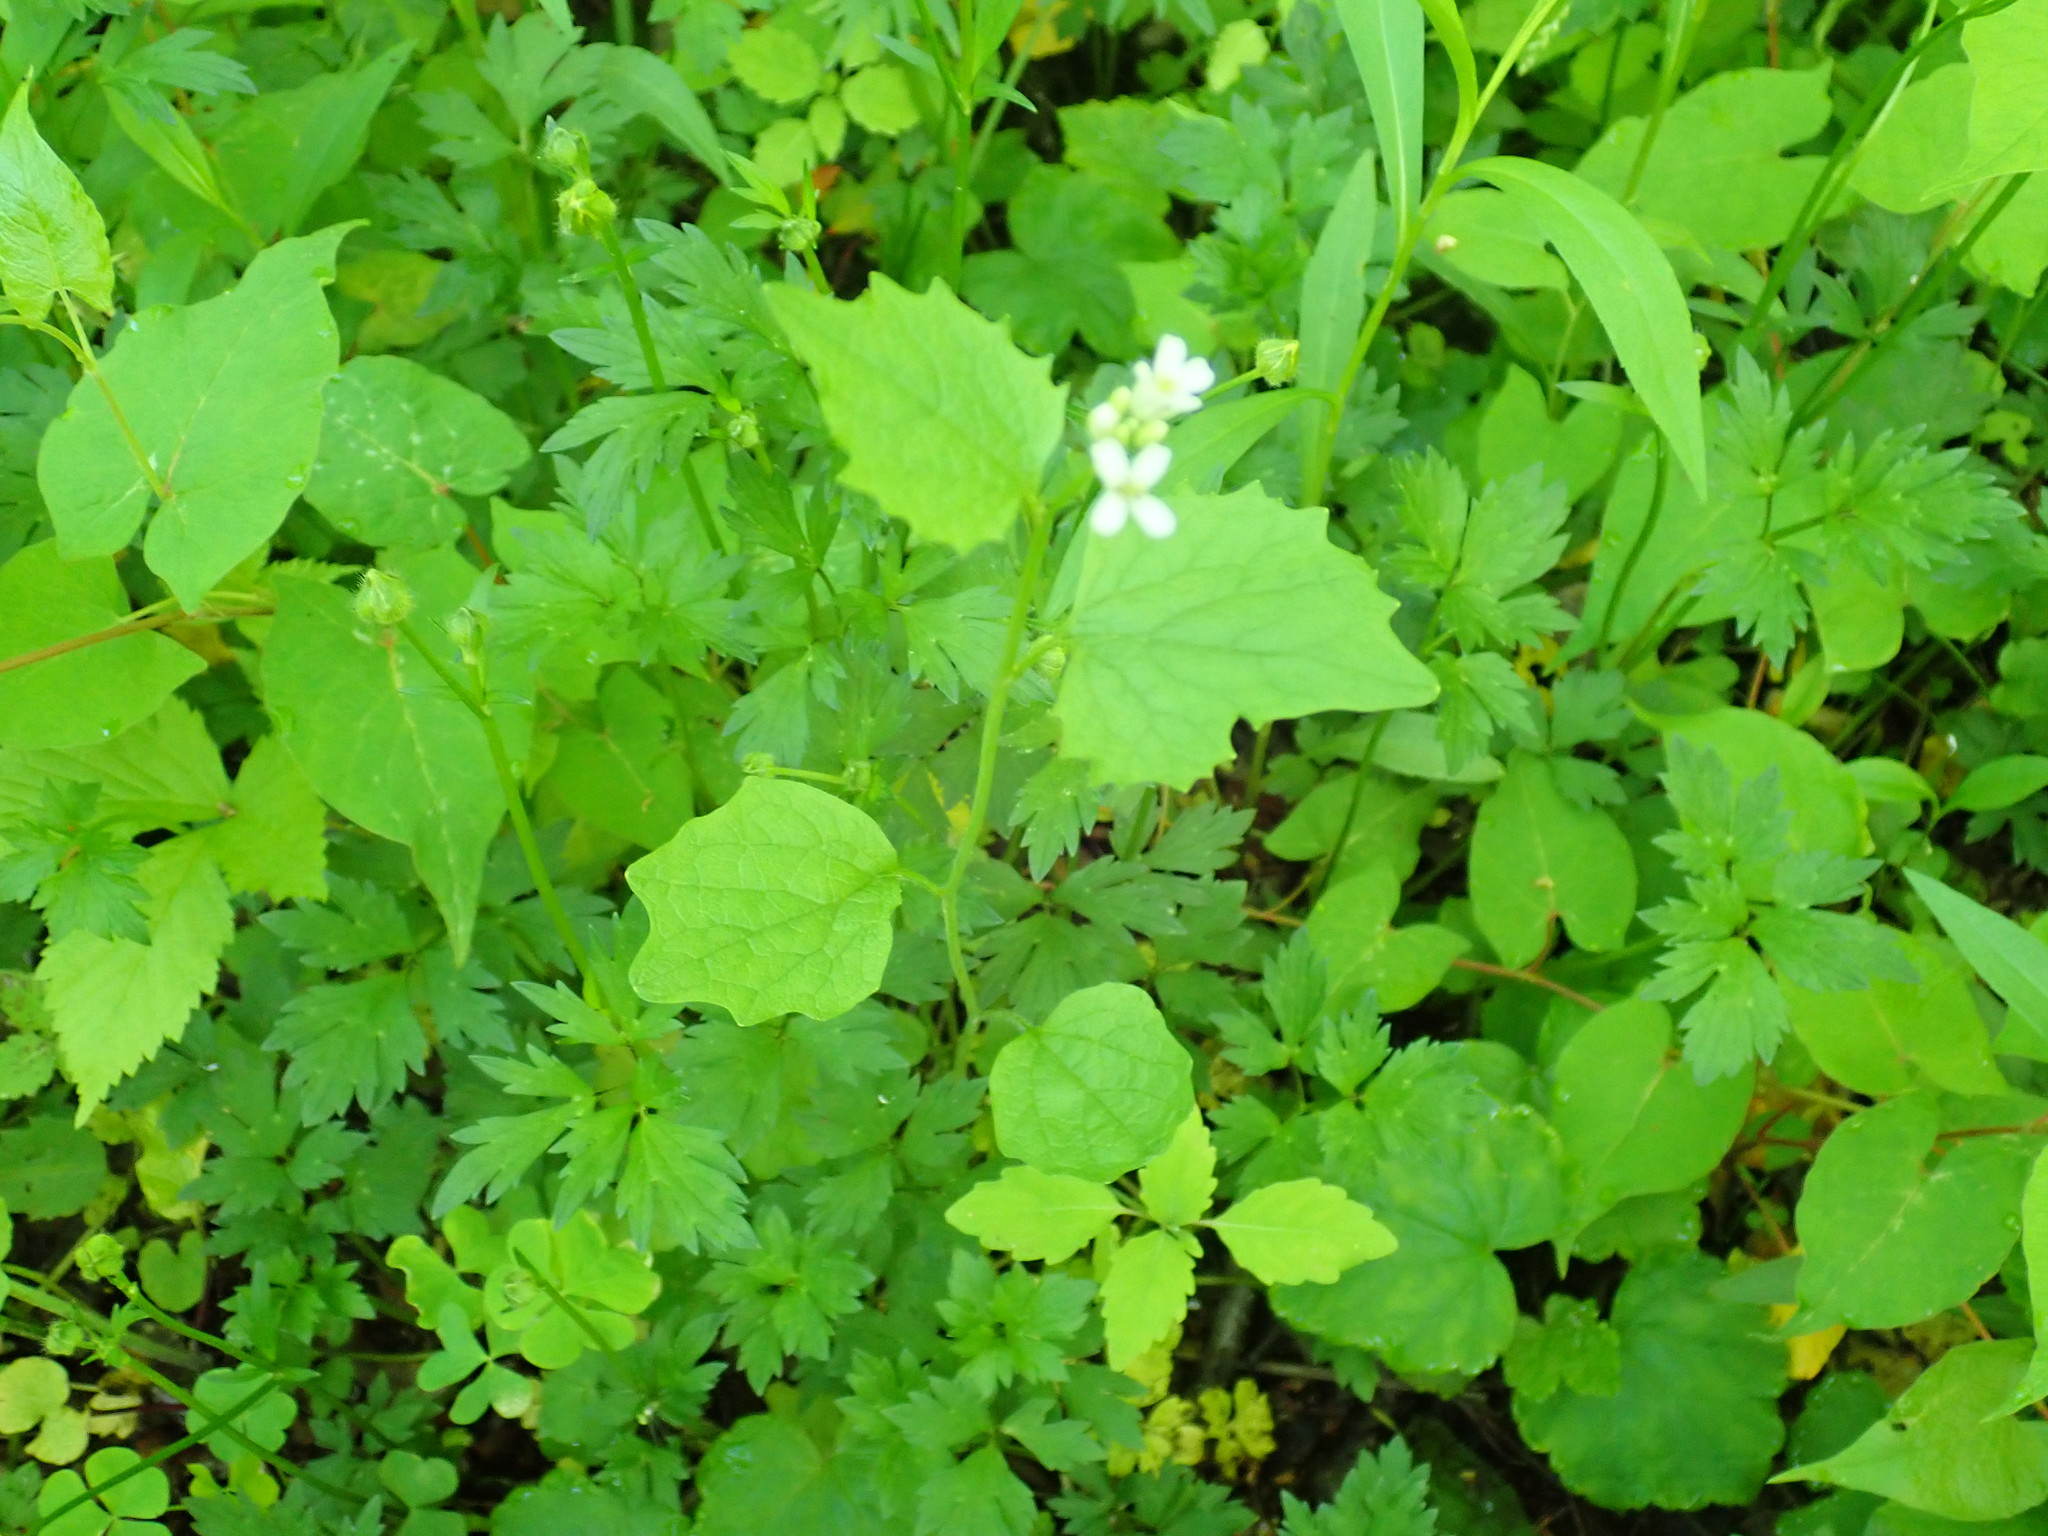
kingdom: Plantae
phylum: Tracheophyta
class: Magnoliopsida
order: Brassicales
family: Brassicaceae
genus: Alliaria
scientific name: Alliaria petiolata
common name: Garlic mustard
